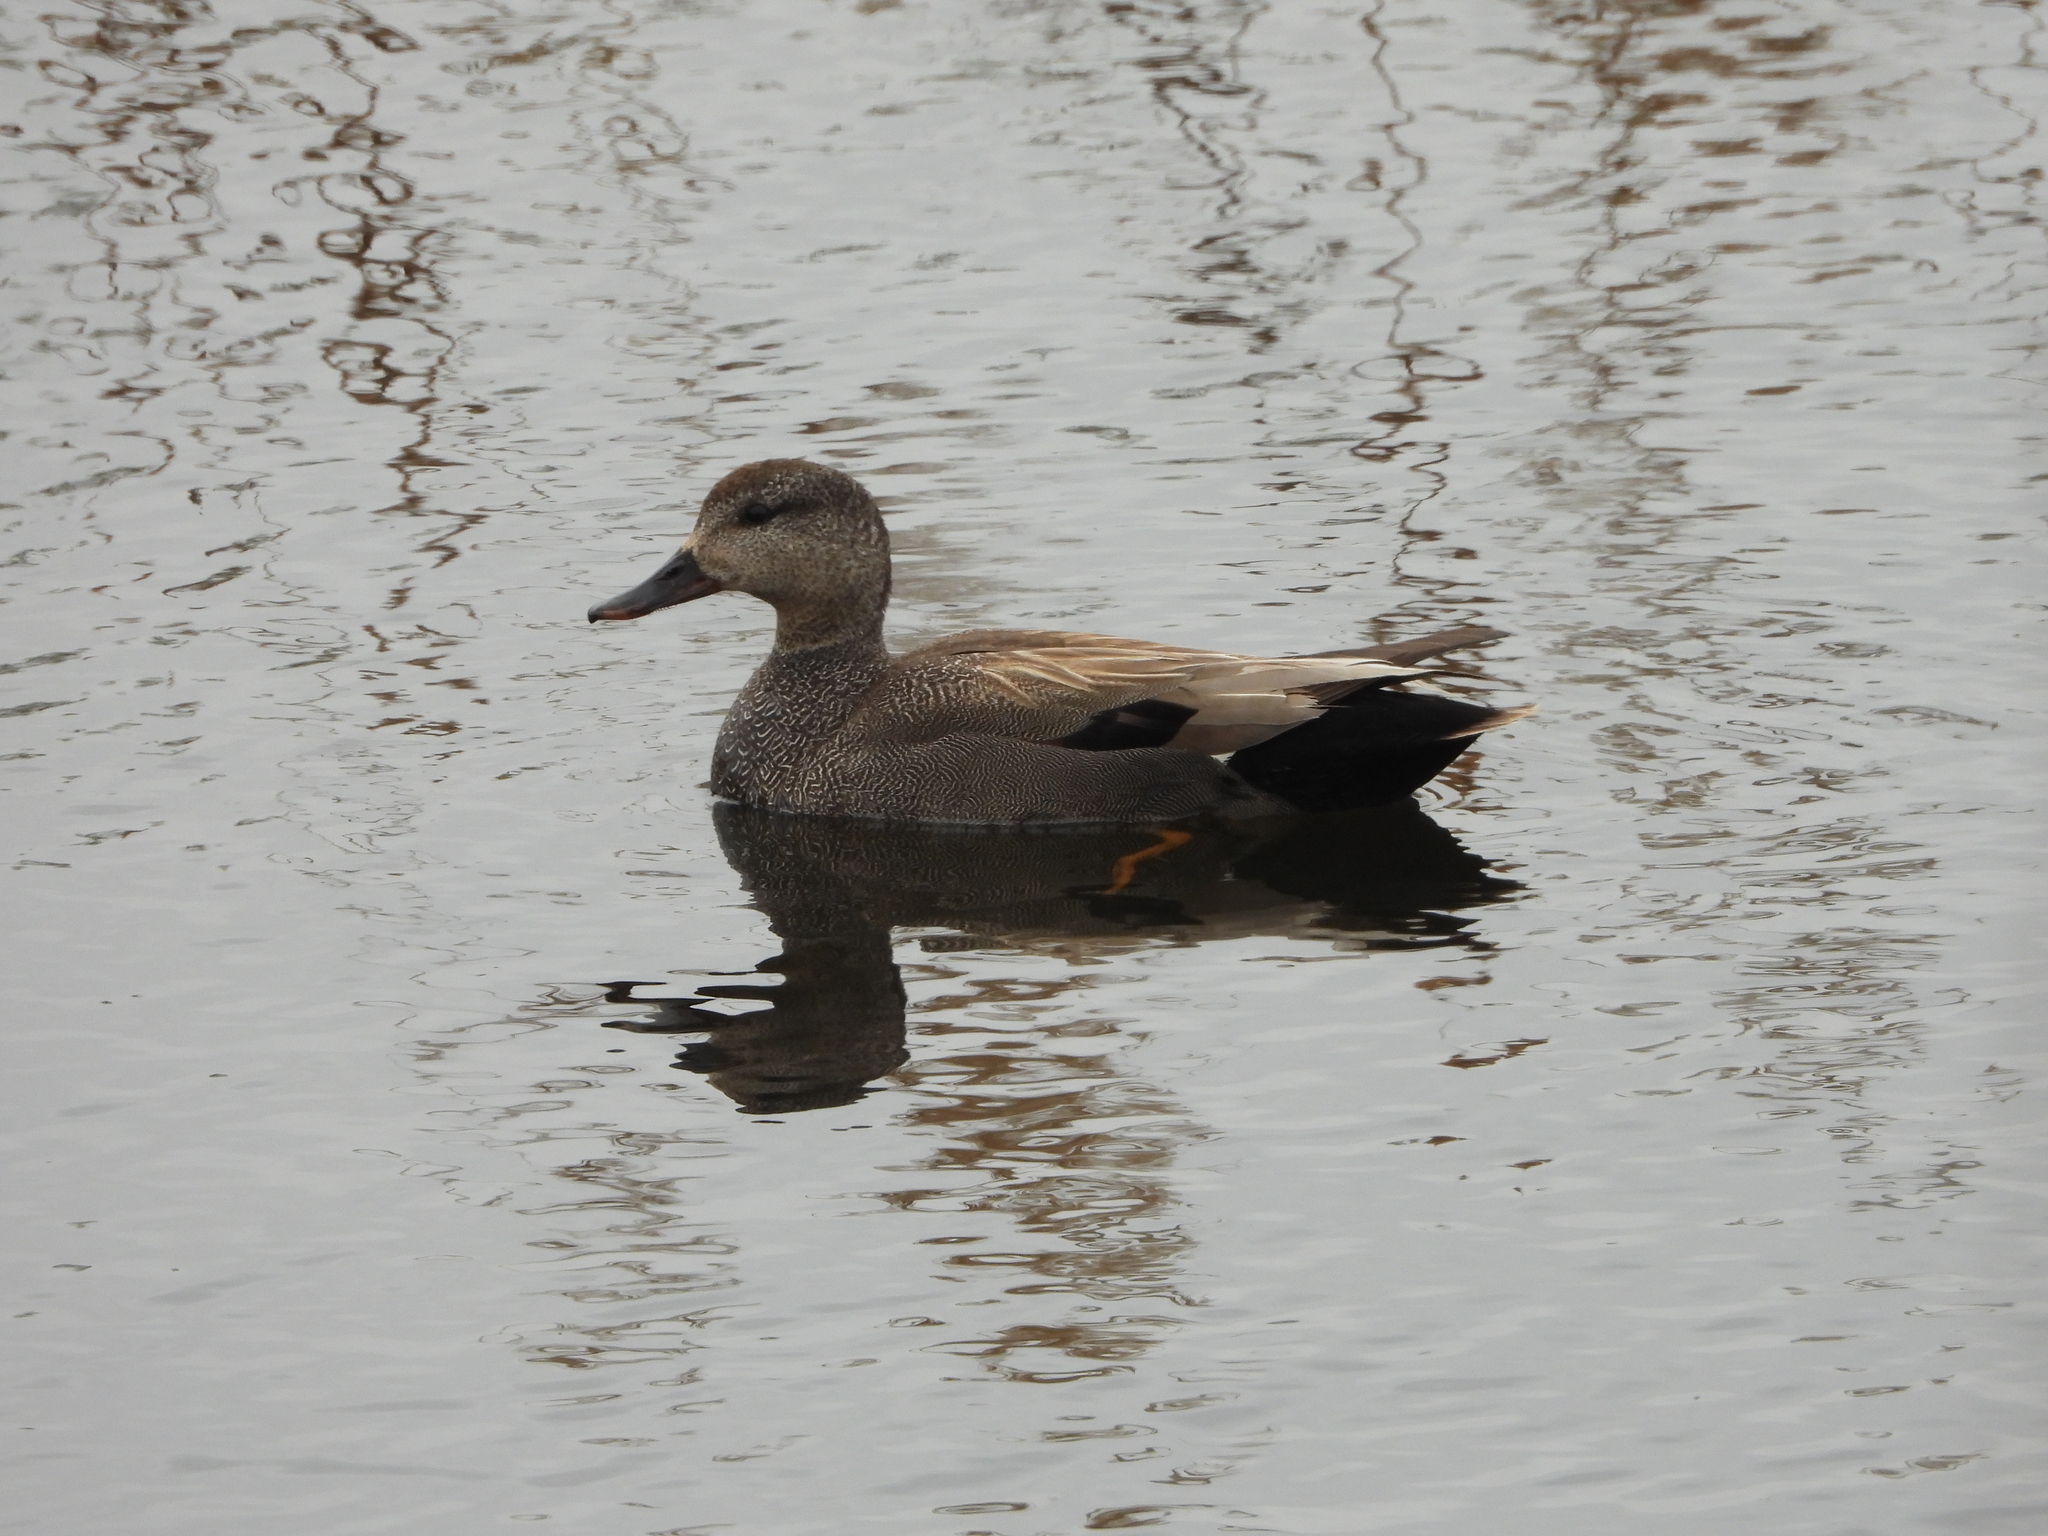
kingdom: Animalia
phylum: Chordata
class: Aves
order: Anseriformes
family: Anatidae
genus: Mareca
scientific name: Mareca strepera
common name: Gadwall
